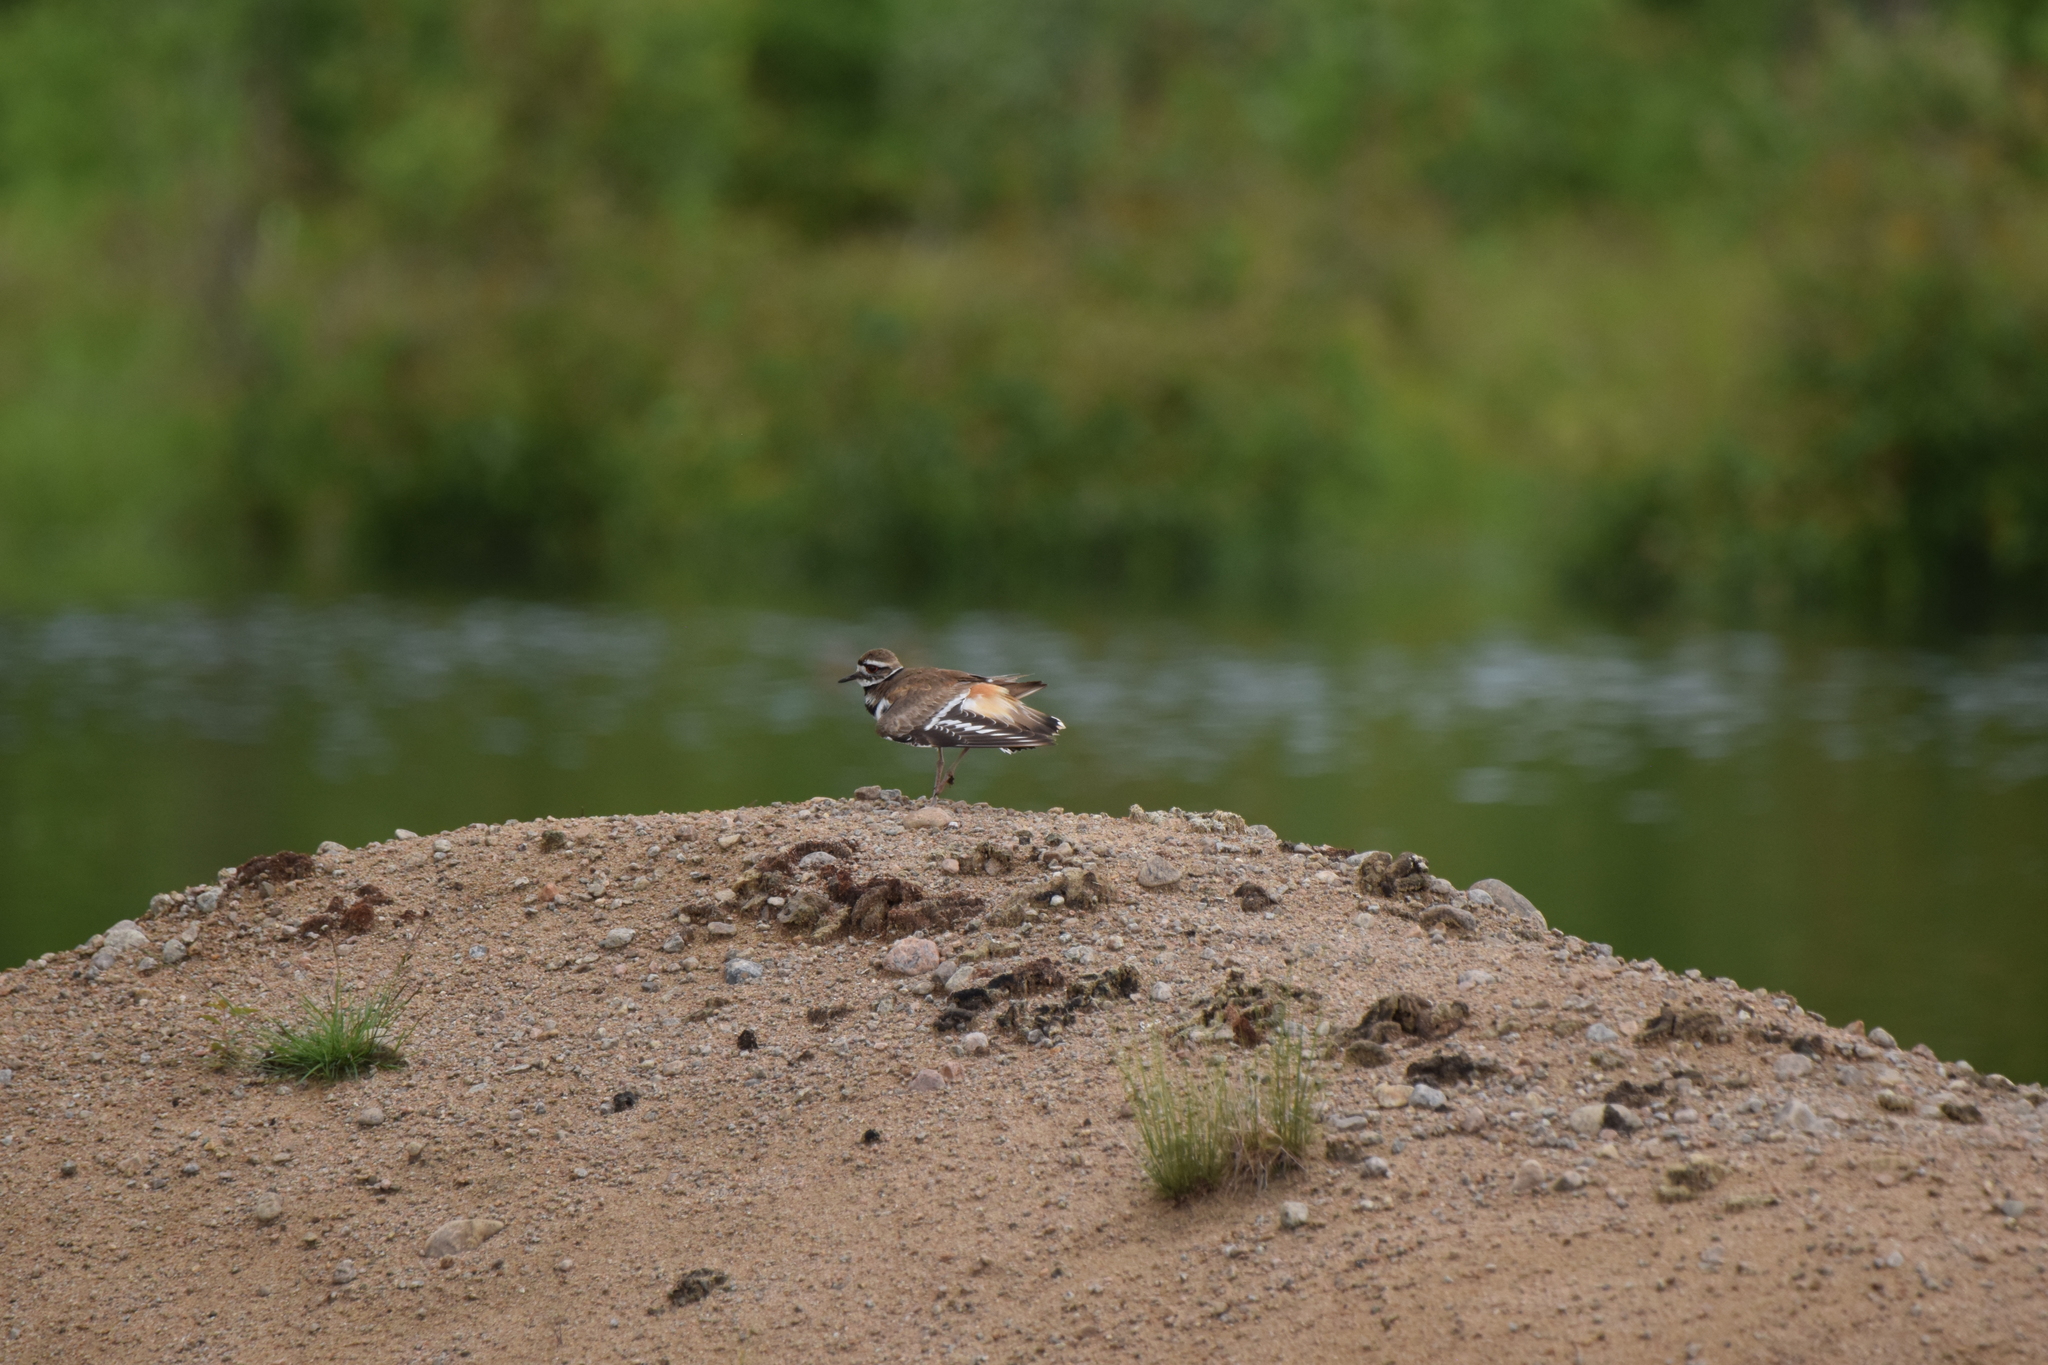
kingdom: Animalia
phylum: Chordata
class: Aves
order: Charadriiformes
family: Charadriidae
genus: Charadrius
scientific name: Charadrius vociferus
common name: Killdeer
